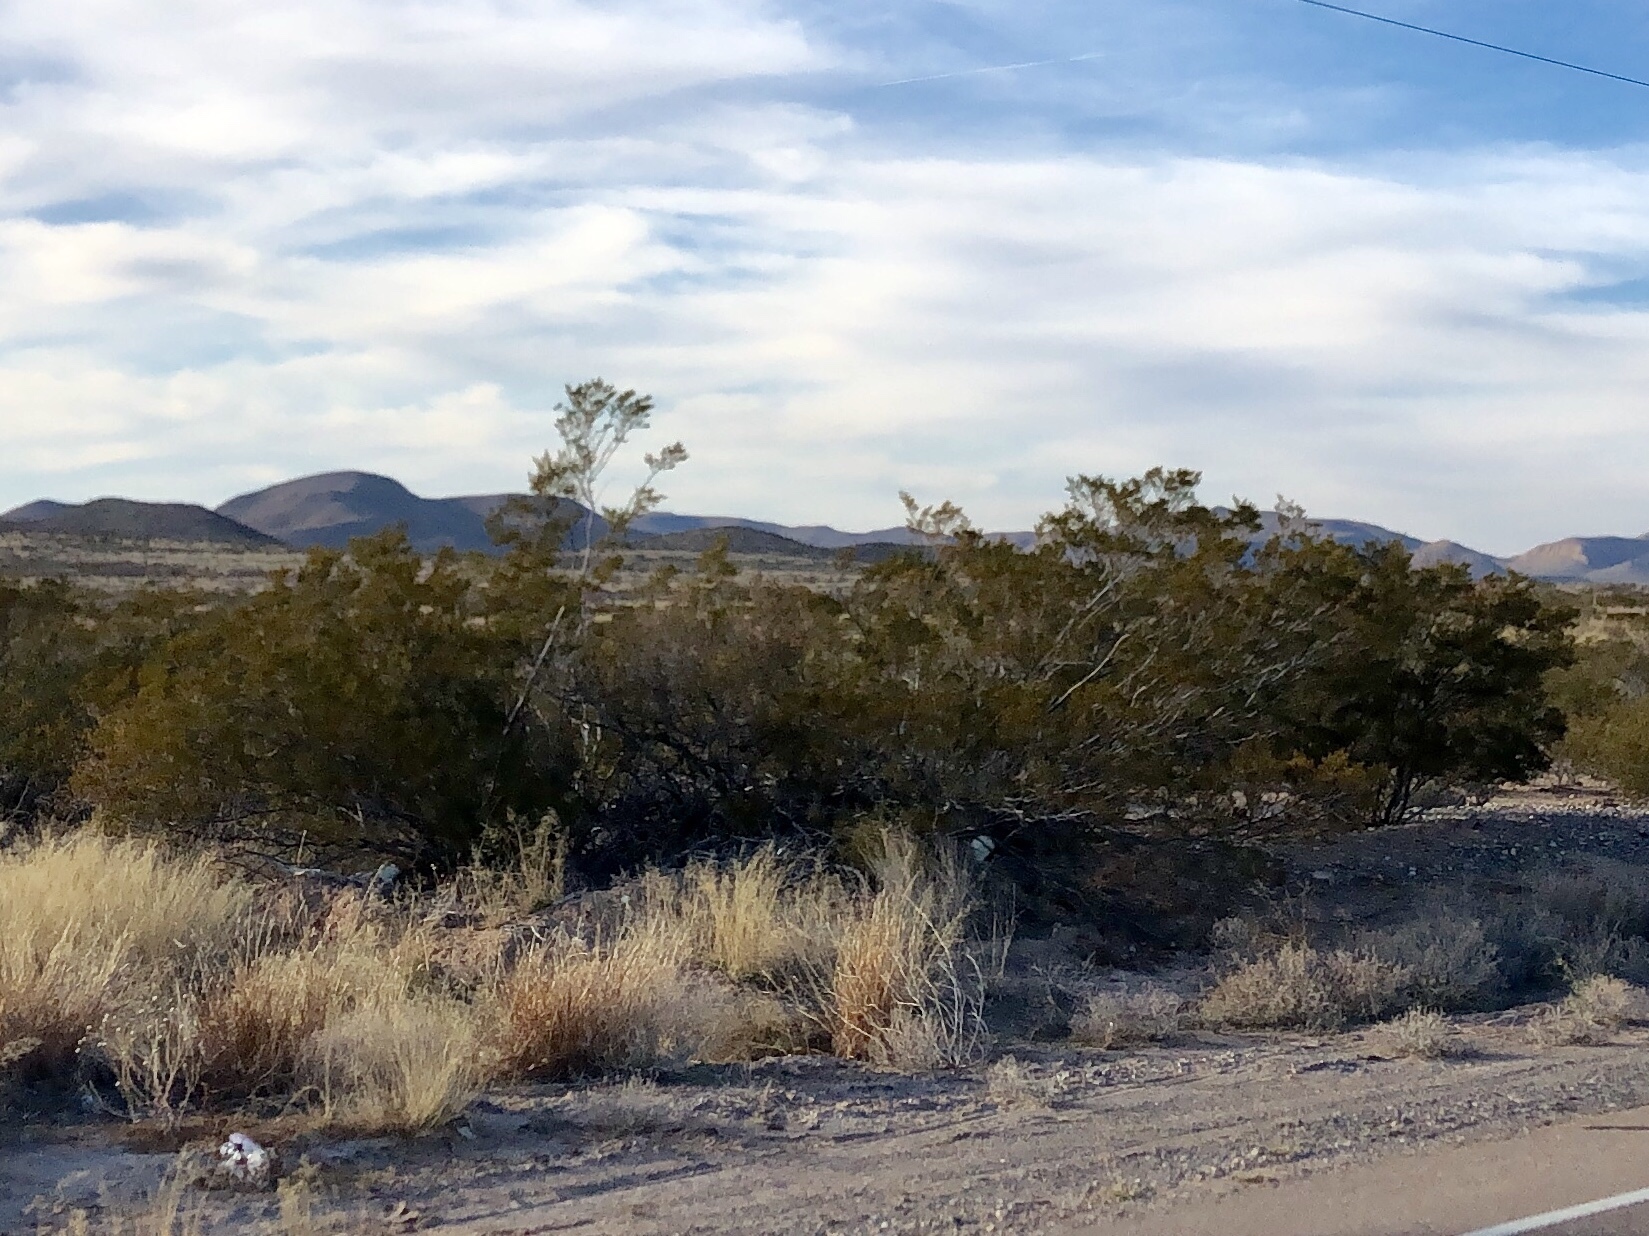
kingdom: Plantae
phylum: Tracheophyta
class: Magnoliopsida
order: Zygophyllales
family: Zygophyllaceae
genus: Larrea
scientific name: Larrea tridentata
